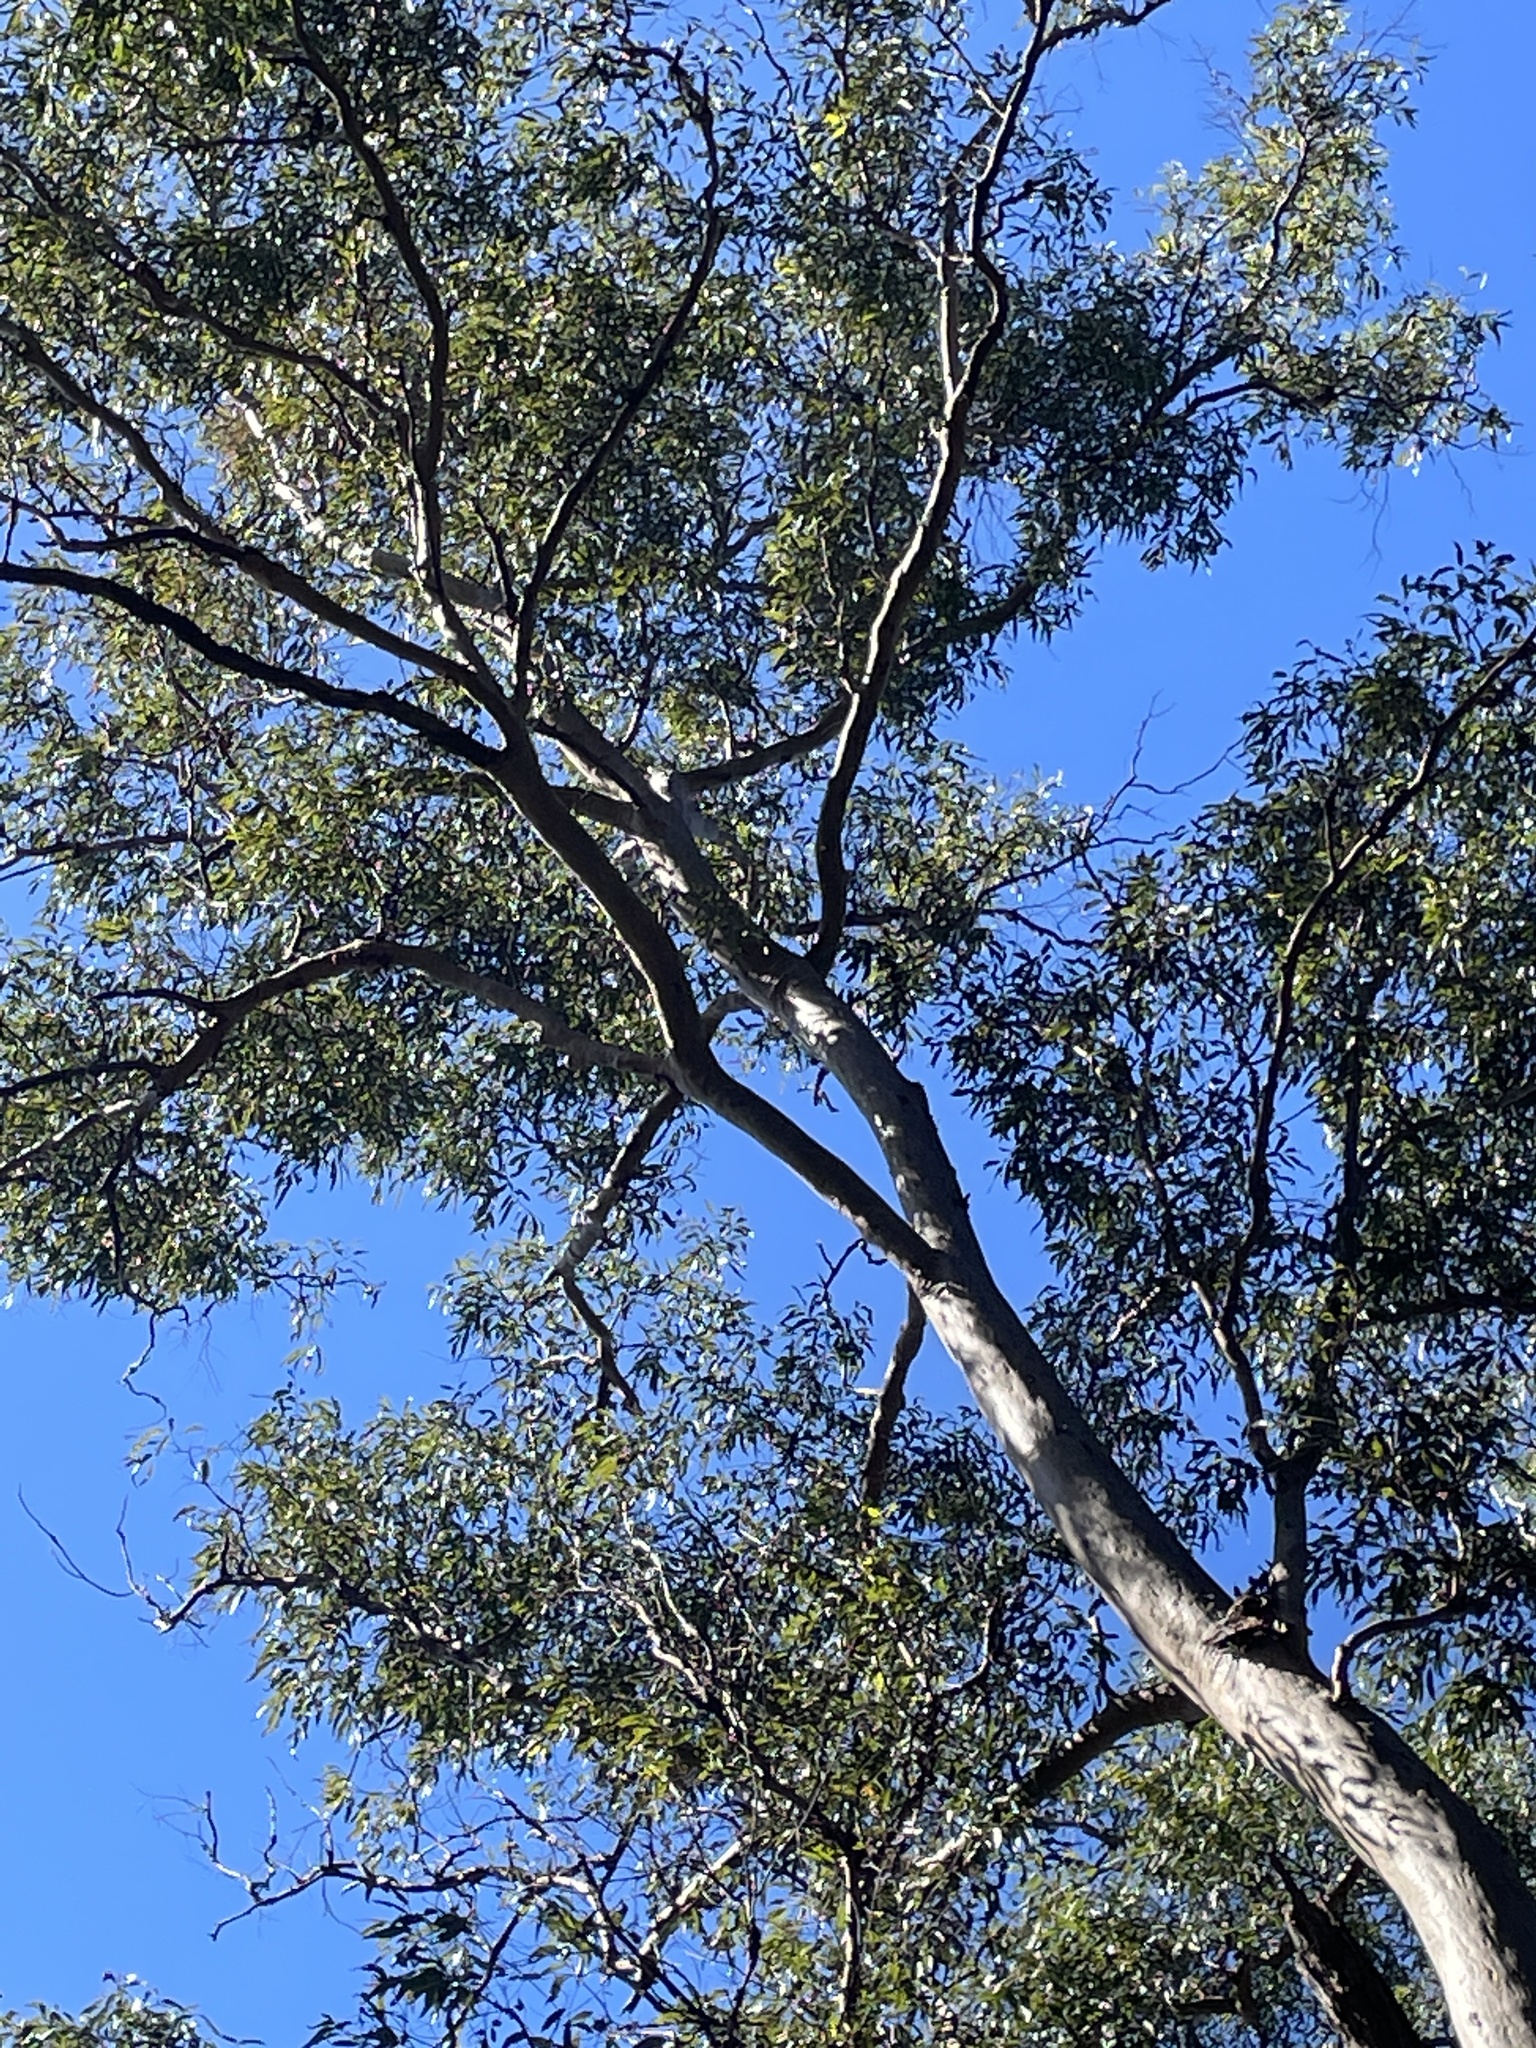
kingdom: Plantae
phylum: Tracheophyta
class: Magnoliopsida
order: Myrtales
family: Myrtaceae
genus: Corymbia
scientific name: Corymbia citriodora
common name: Lemonscented gum
